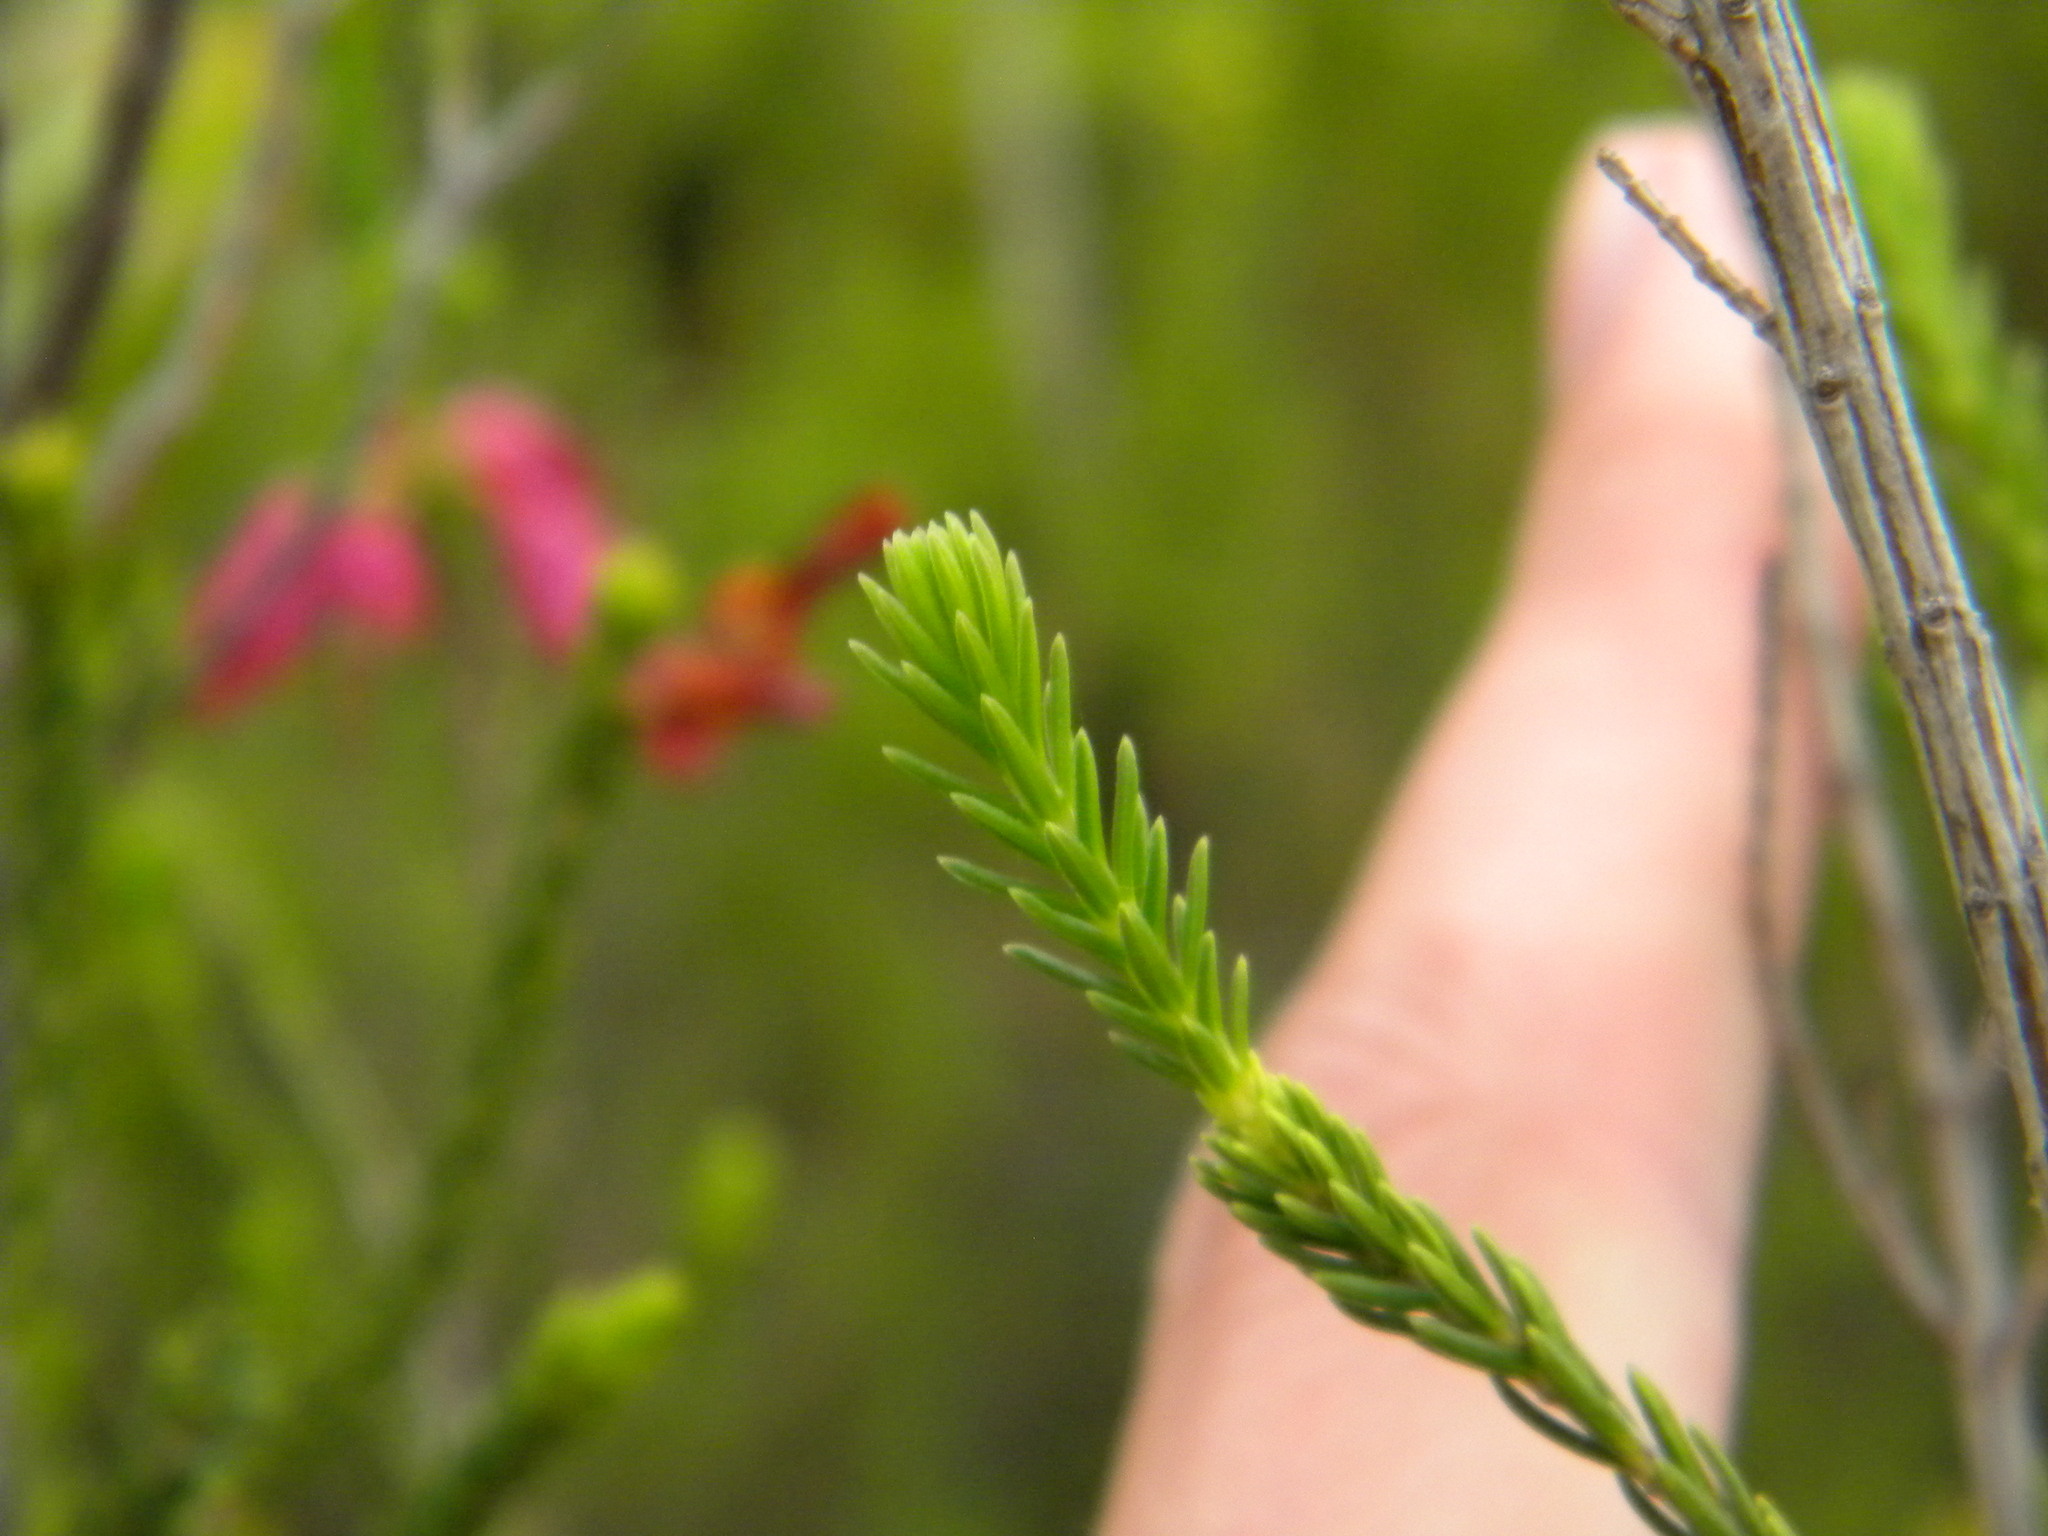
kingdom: Plantae
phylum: Tracheophyta
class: Magnoliopsida
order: Ericales
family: Ericaceae
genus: Erica
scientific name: Erica mammosa
